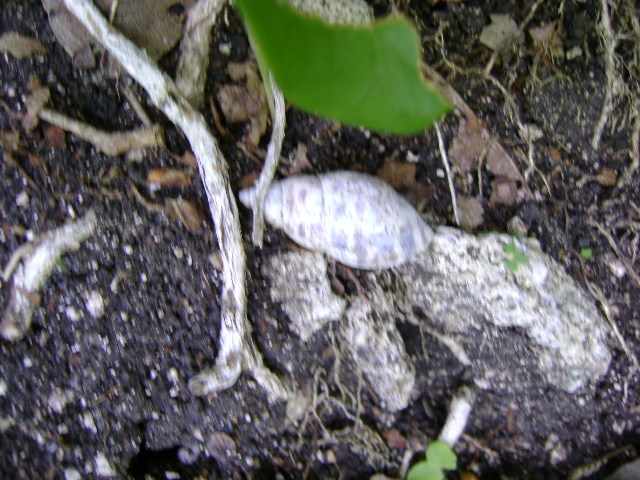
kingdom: Animalia
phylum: Mollusca
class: Gastropoda
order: Stylommatophora
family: Bulimulidae
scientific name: Bulimulidae
